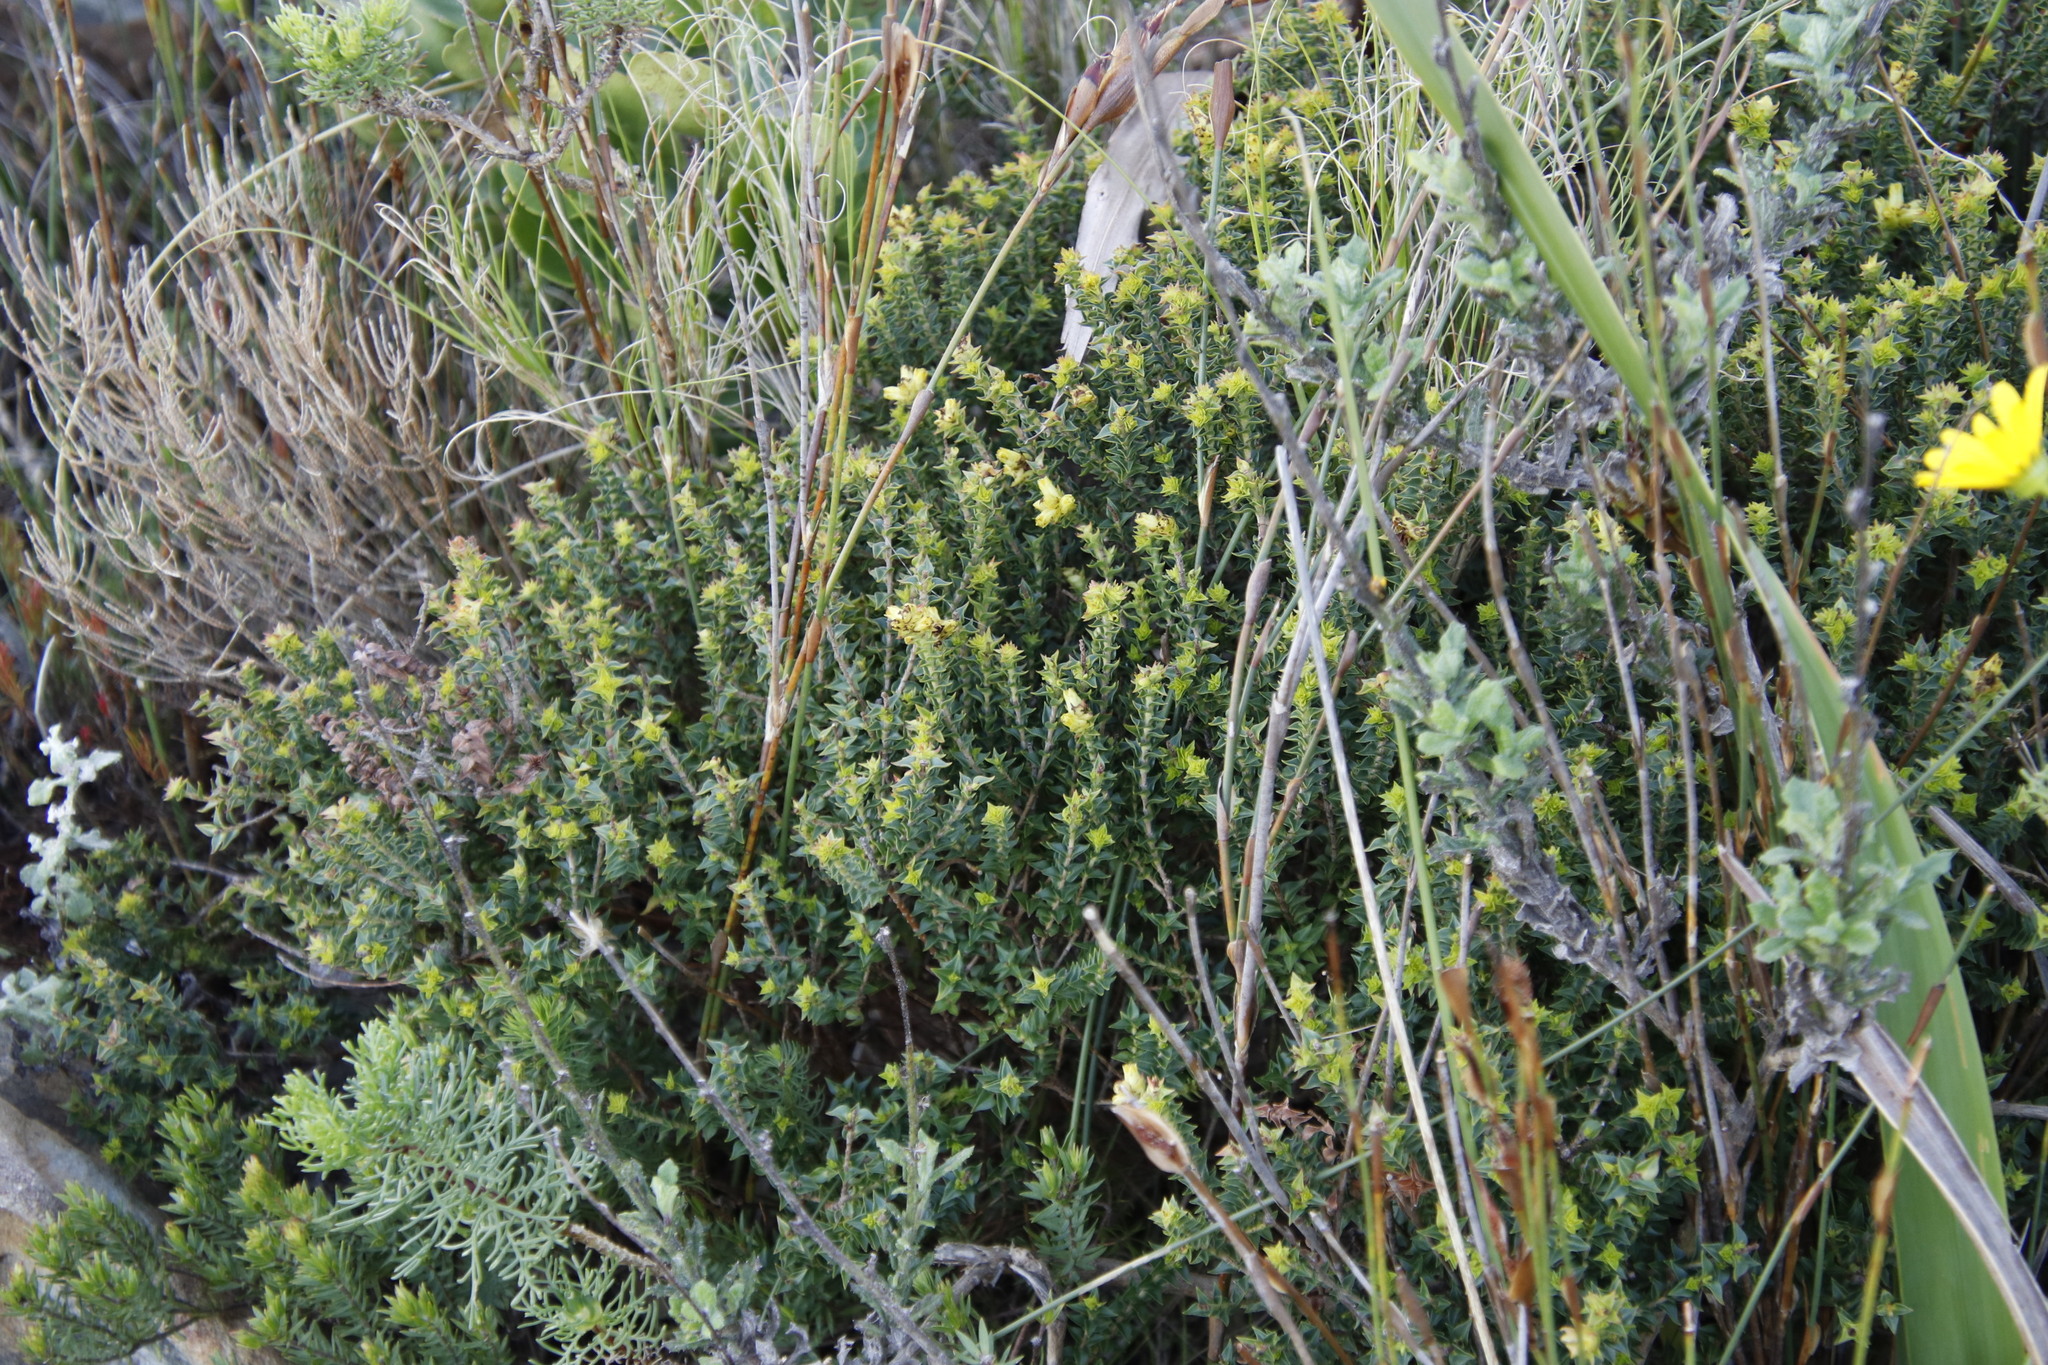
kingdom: Plantae
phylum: Tracheophyta
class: Magnoliopsida
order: Myrtales
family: Penaeaceae
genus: Penaea
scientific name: Penaea mucronata
